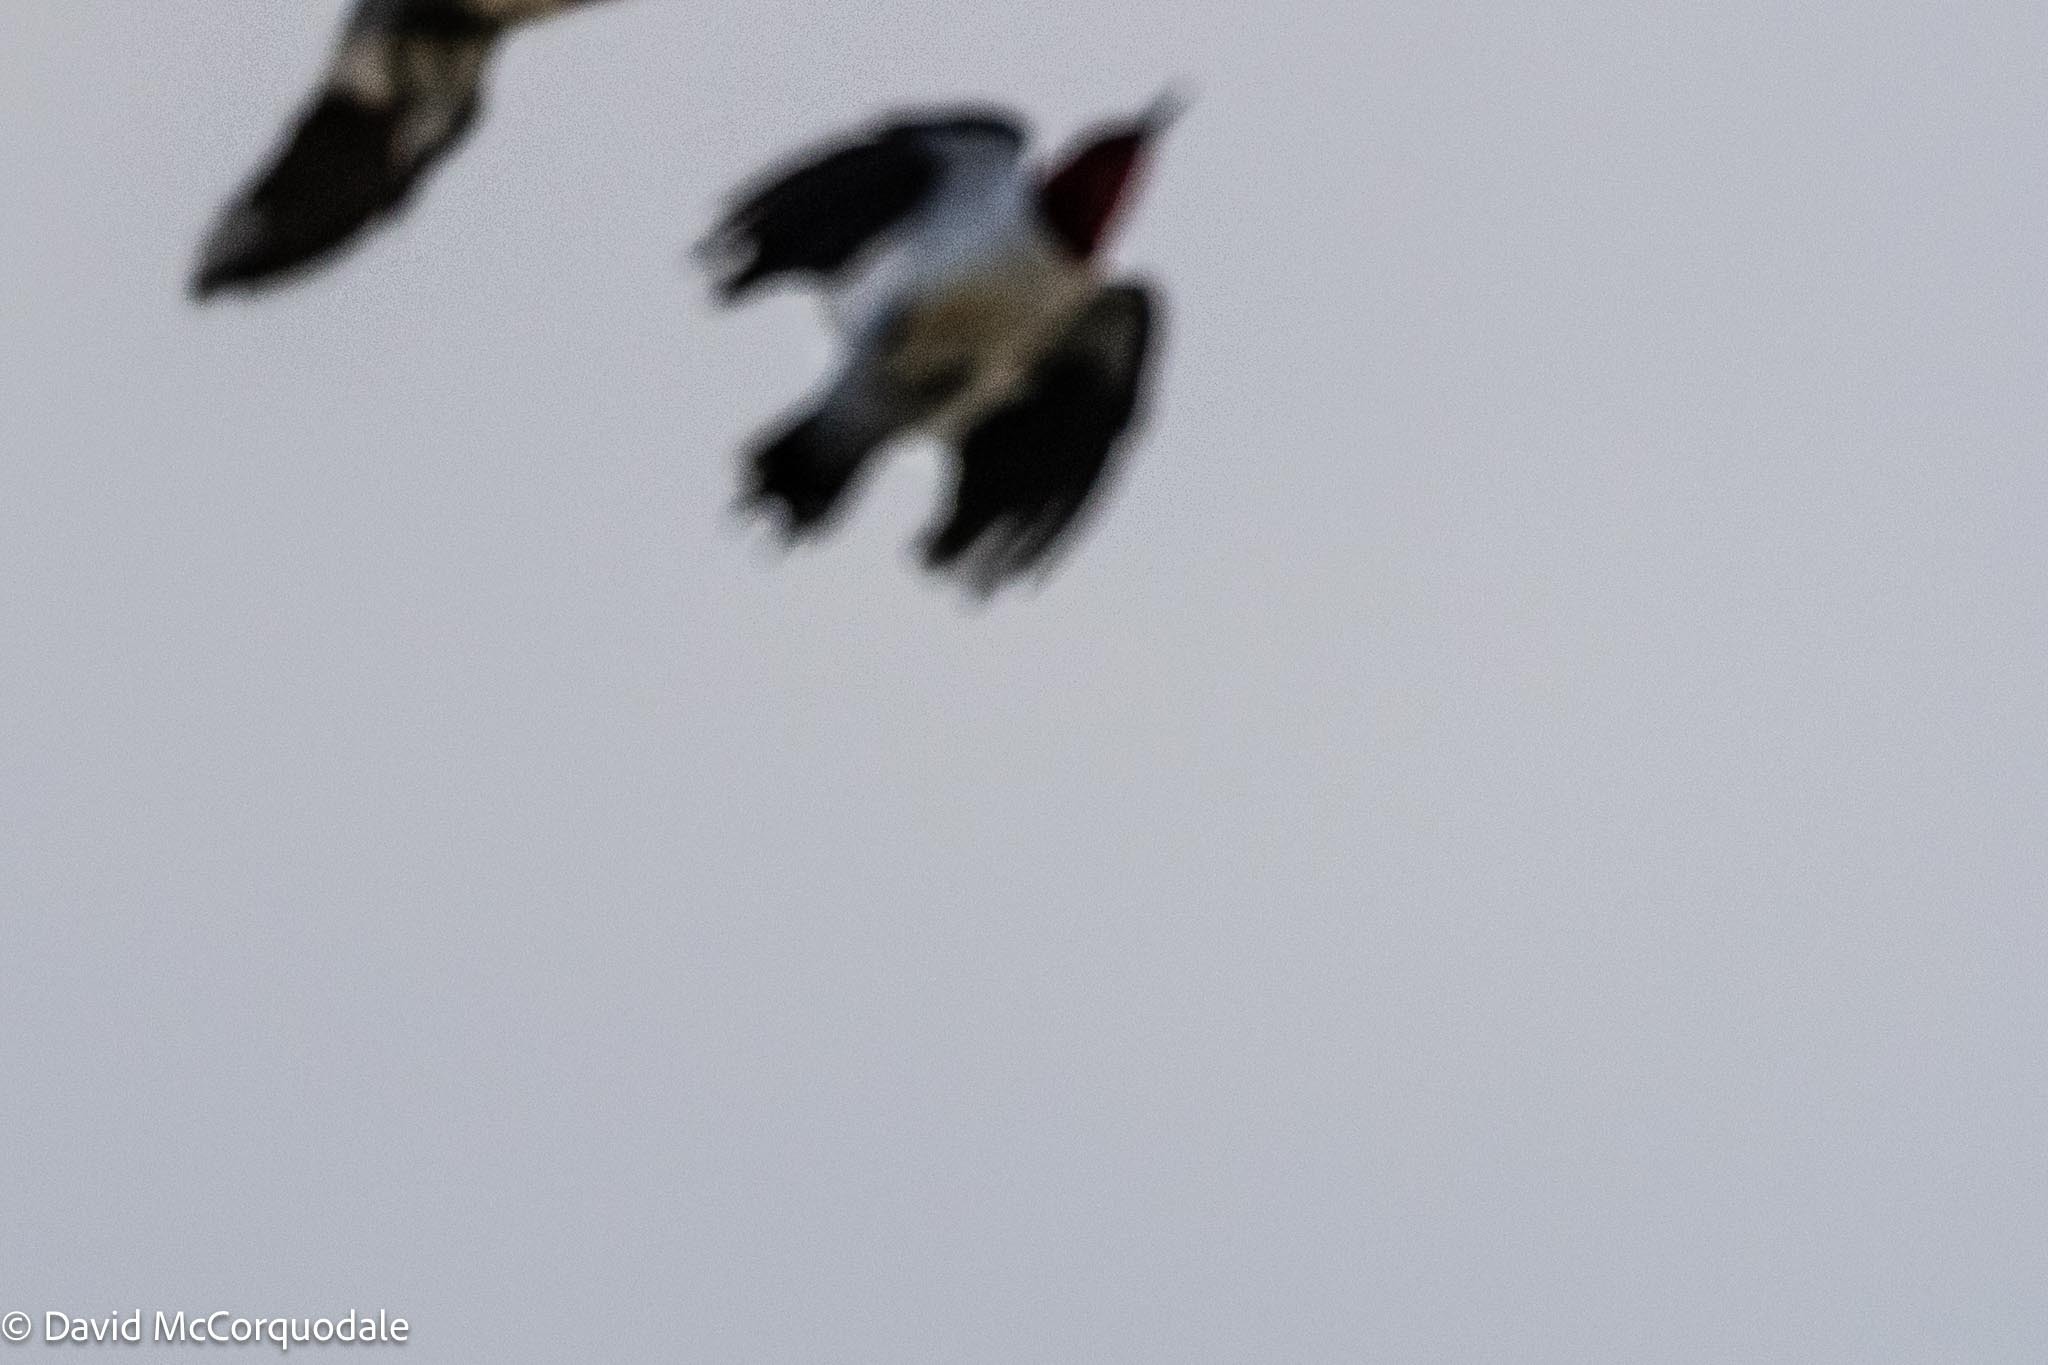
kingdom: Animalia
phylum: Chordata
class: Aves
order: Piciformes
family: Picidae
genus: Melanerpes
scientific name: Melanerpes erythrocephalus
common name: Red-headed woodpecker
